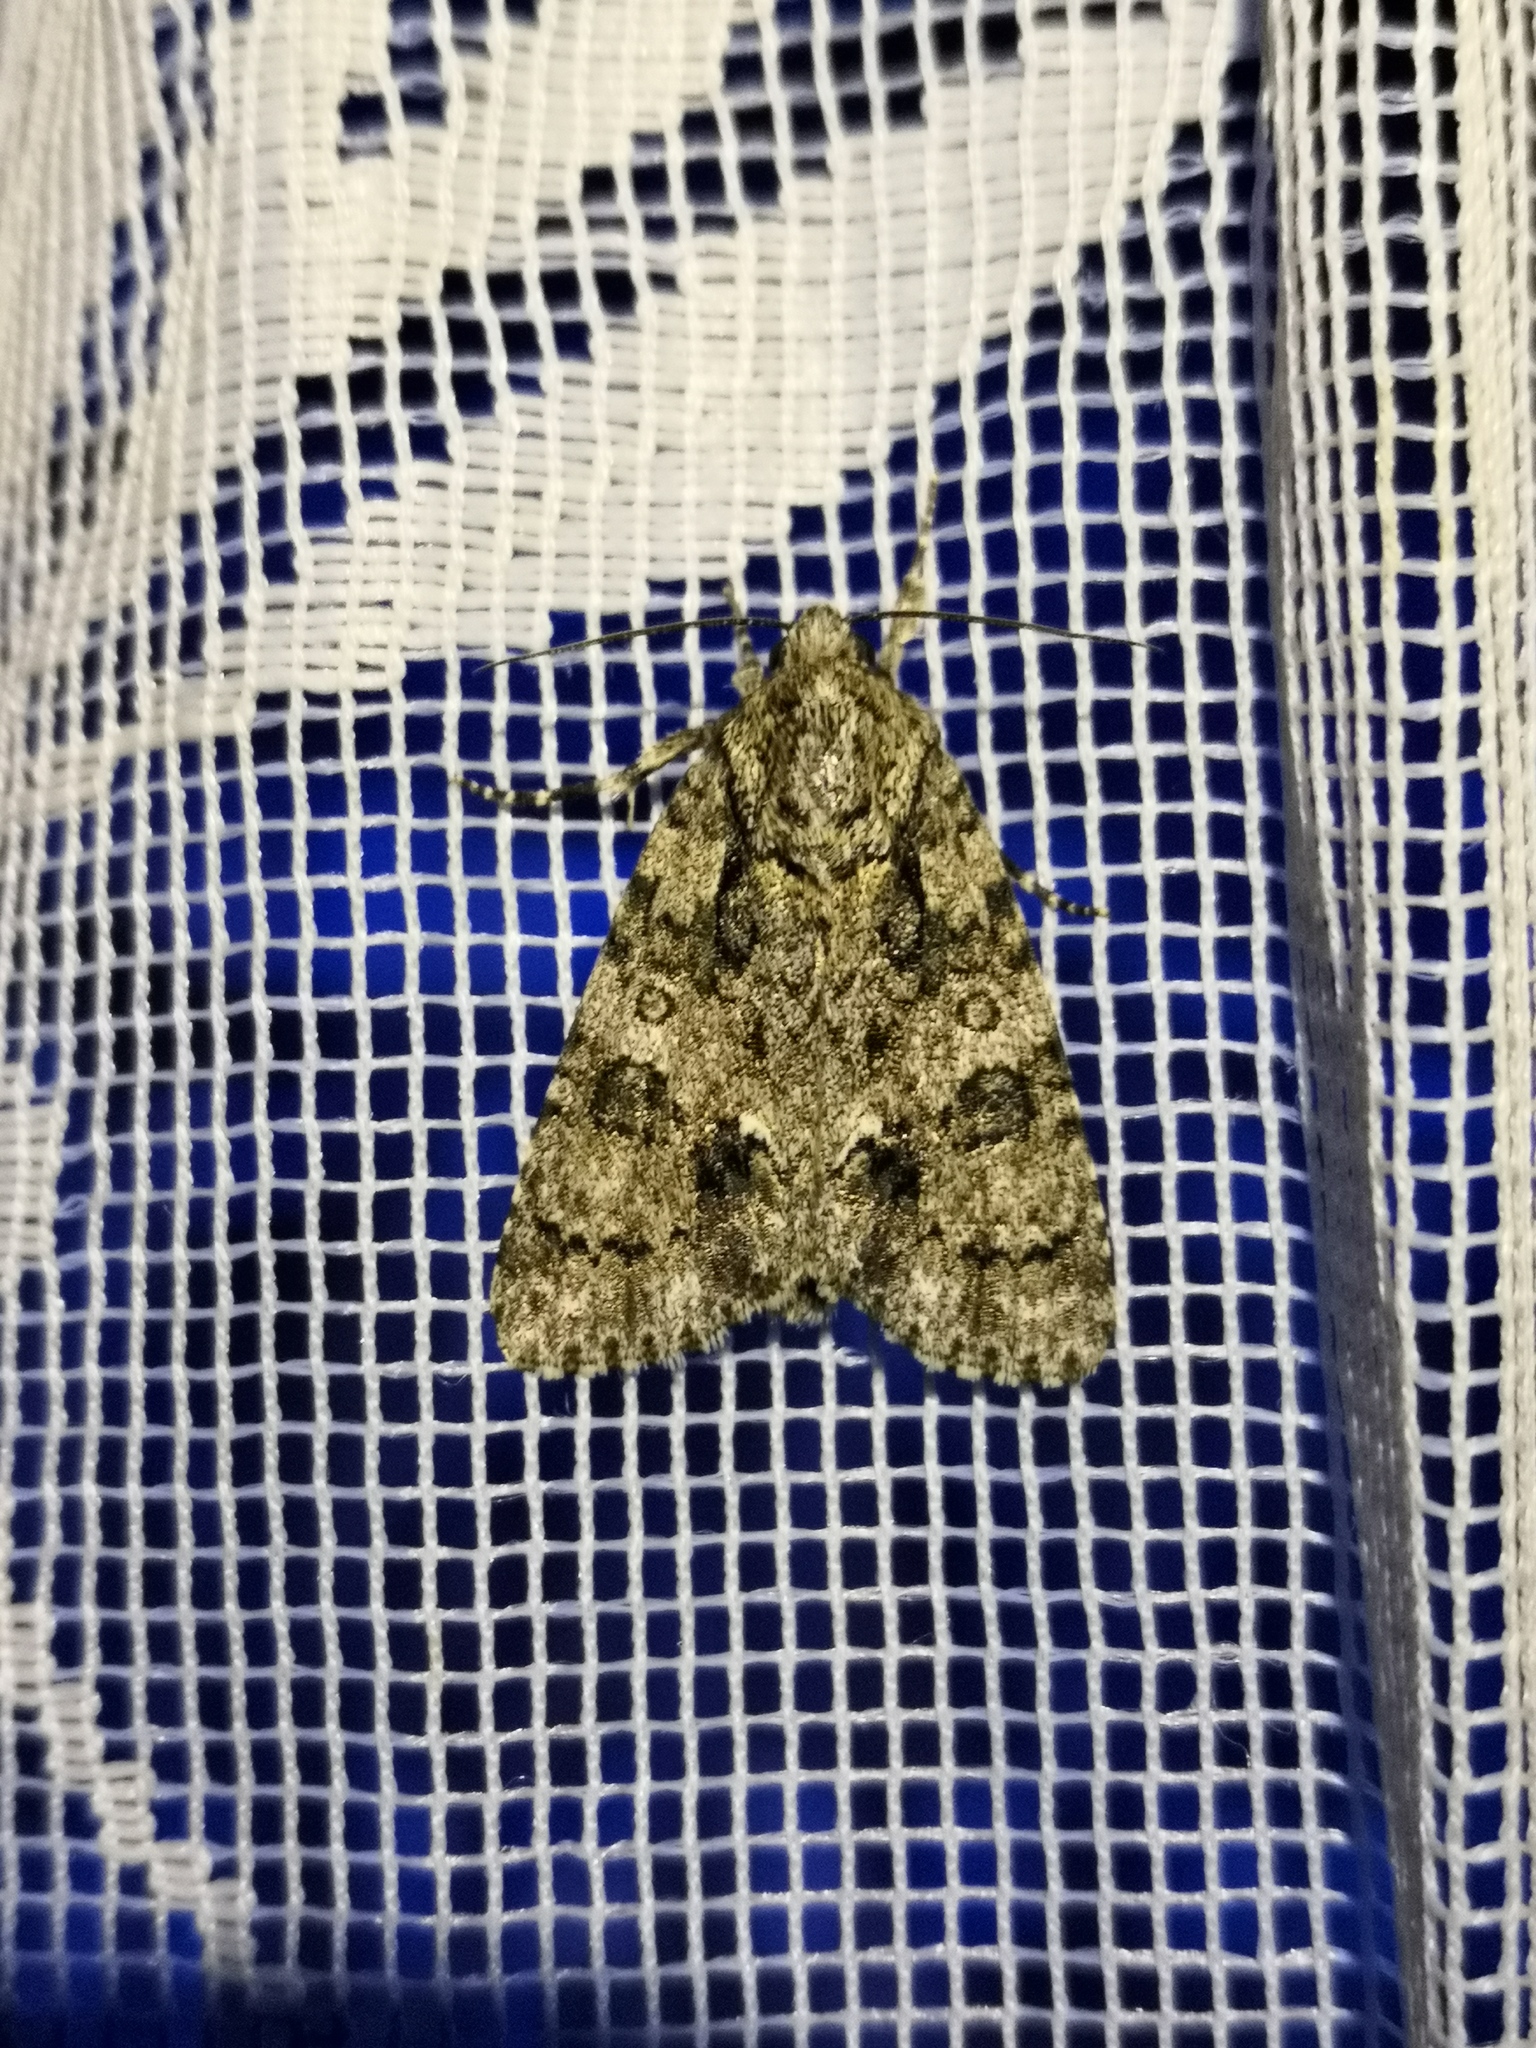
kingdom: Animalia
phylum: Arthropoda
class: Insecta
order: Lepidoptera
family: Noctuidae
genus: Acronicta
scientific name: Acronicta rumicis
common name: Knot grass
